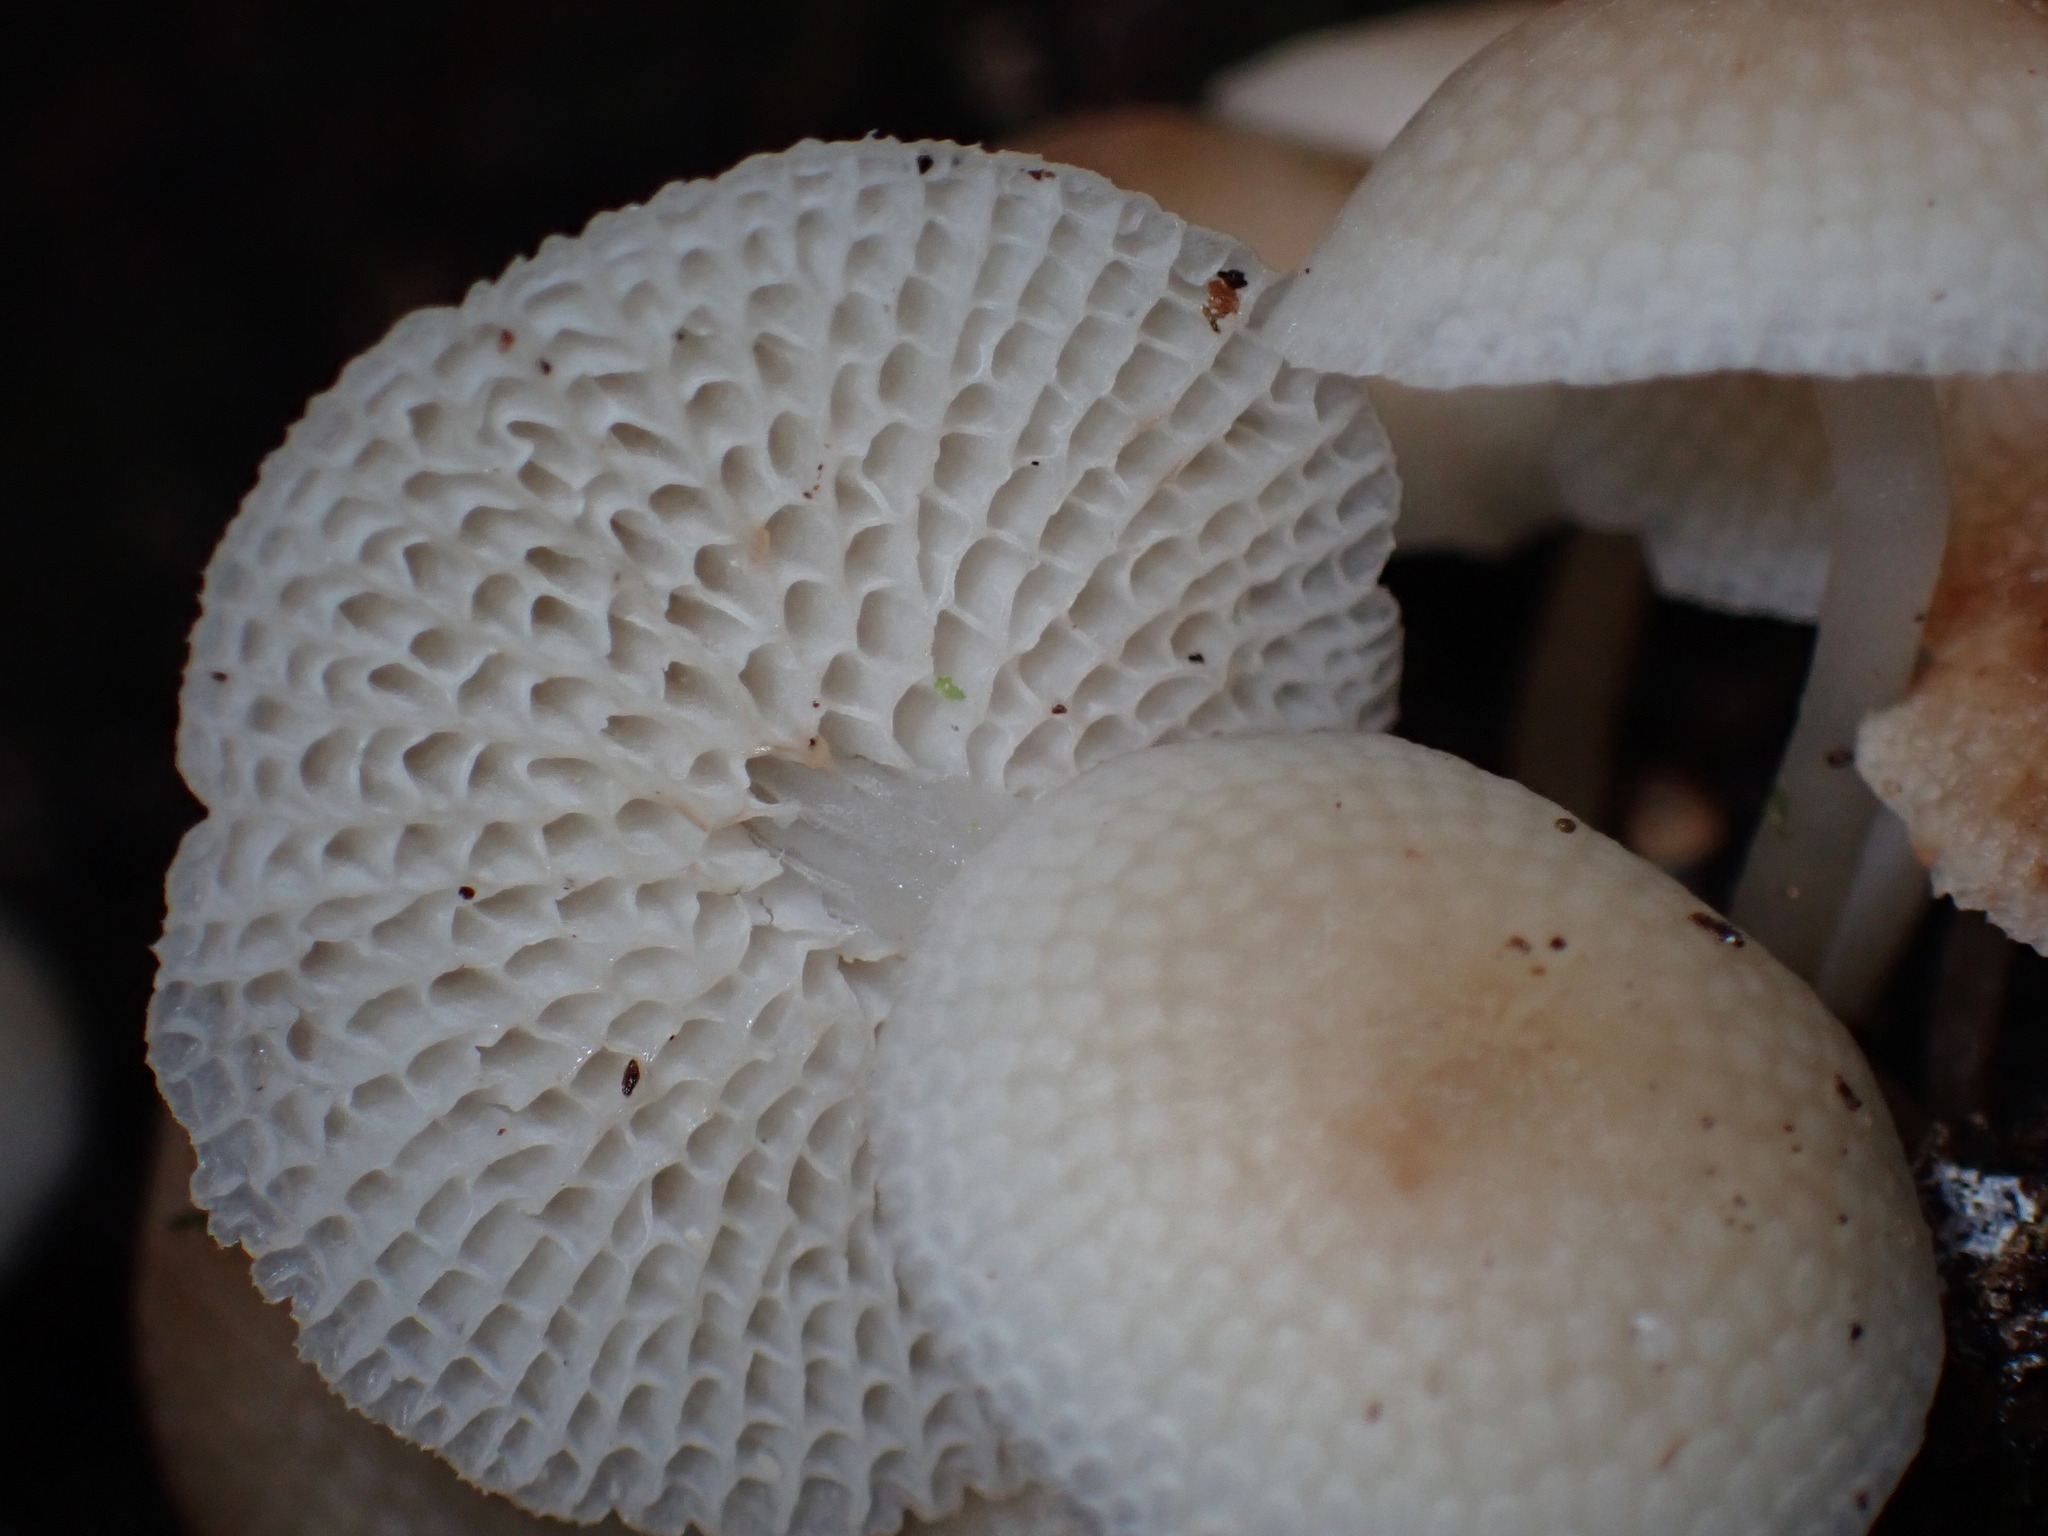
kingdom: Fungi
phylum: Basidiomycota
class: Agaricomycetes
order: Agaricales
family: Mycenaceae
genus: Filoboletus
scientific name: Filoboletus manipularis
